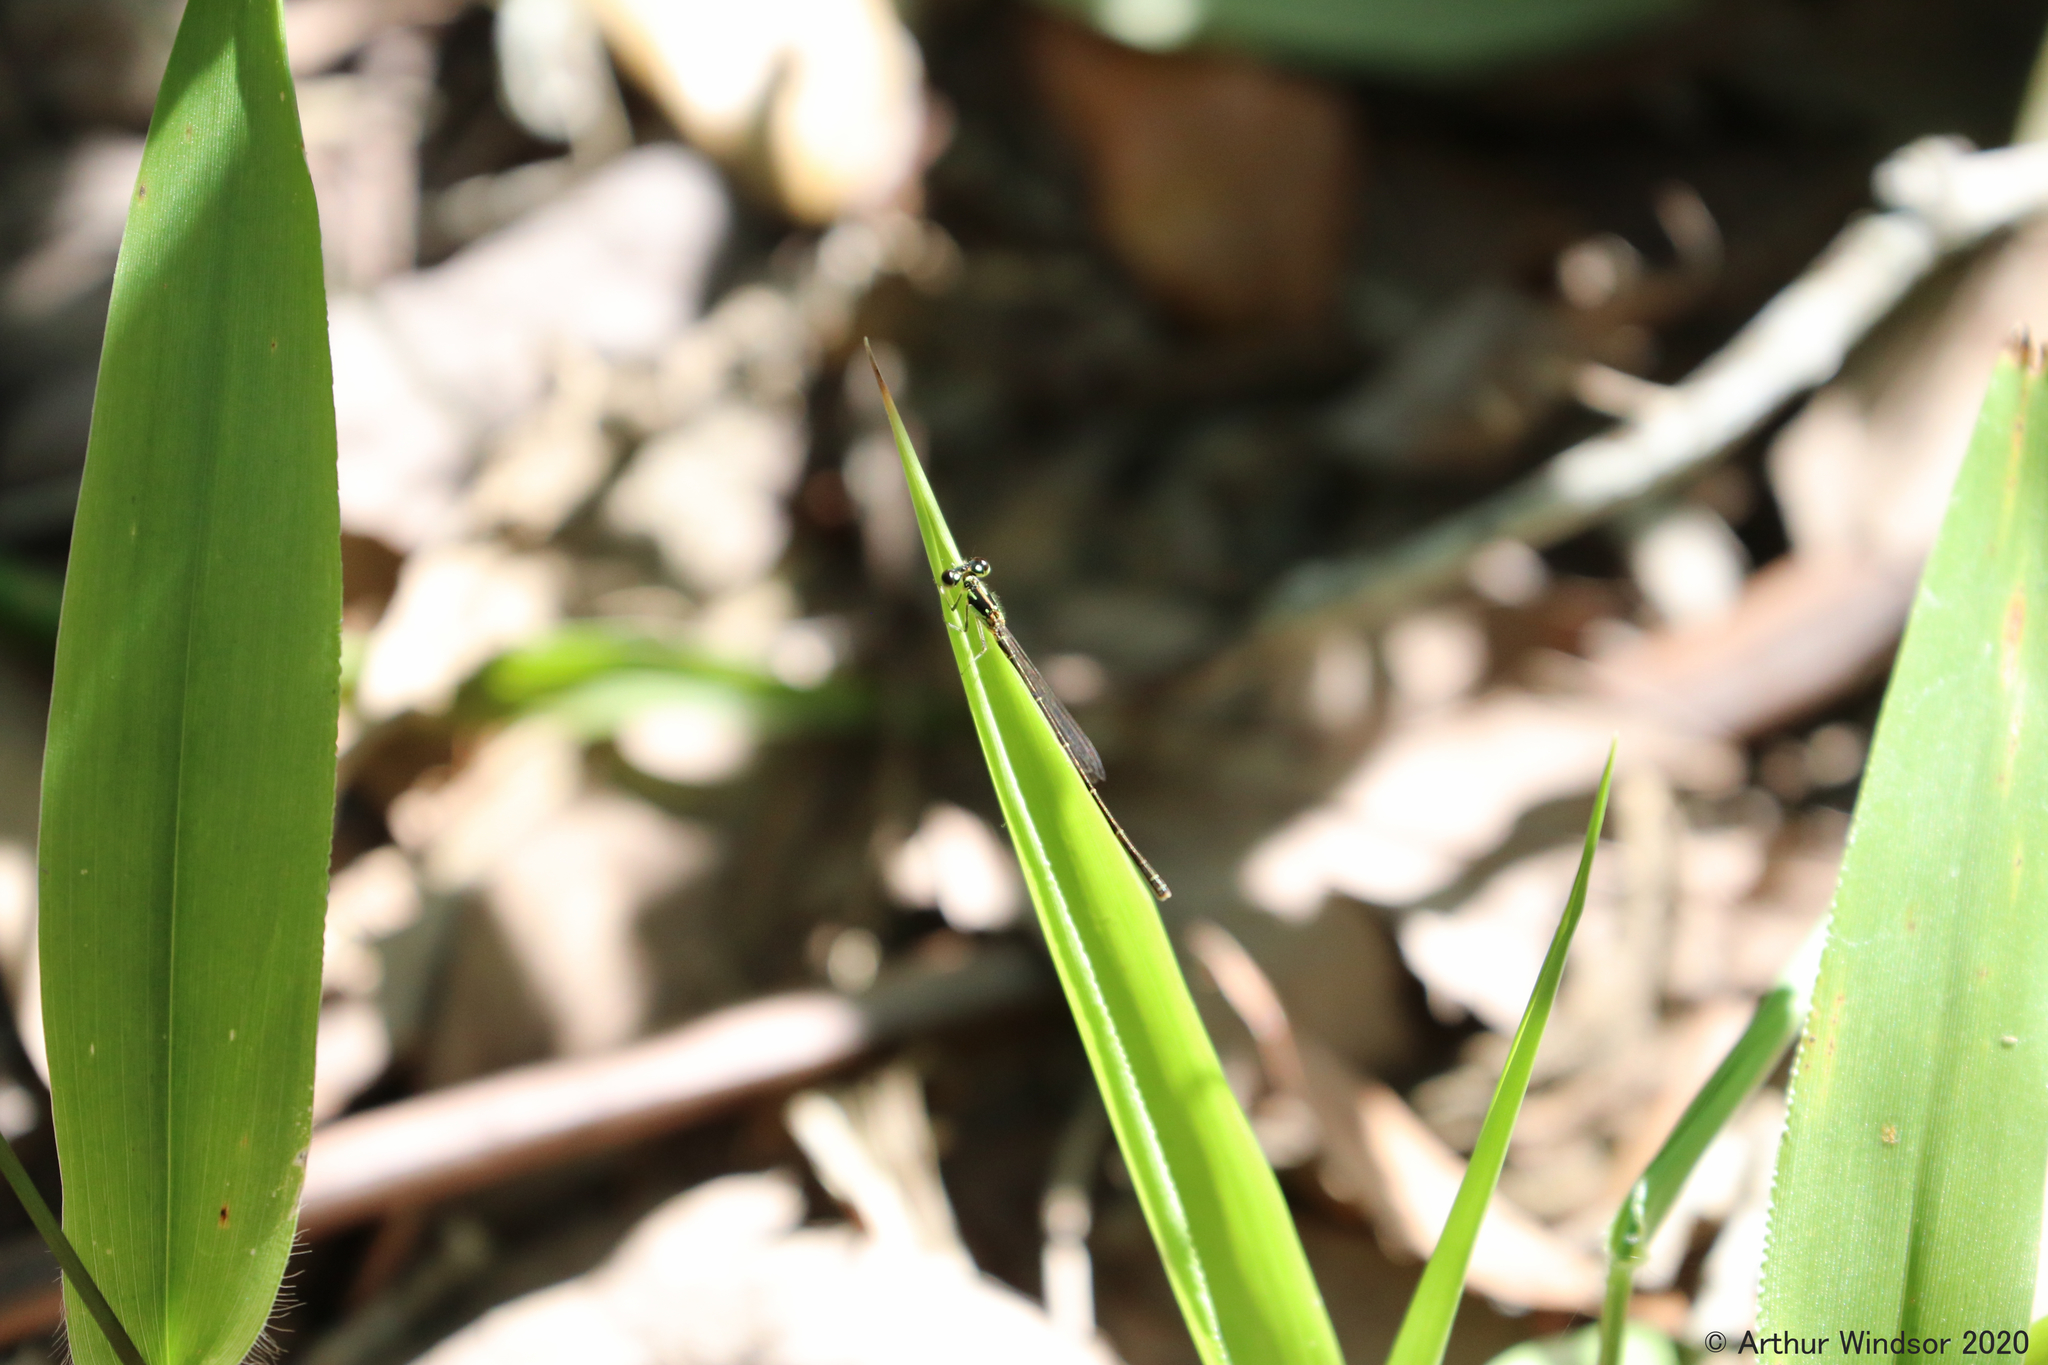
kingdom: Animalia
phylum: Arthropoda
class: Insecta
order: Odonata
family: Coenagrionidae
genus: Ischnura
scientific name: Ischnura posita
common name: Fragile forktail
